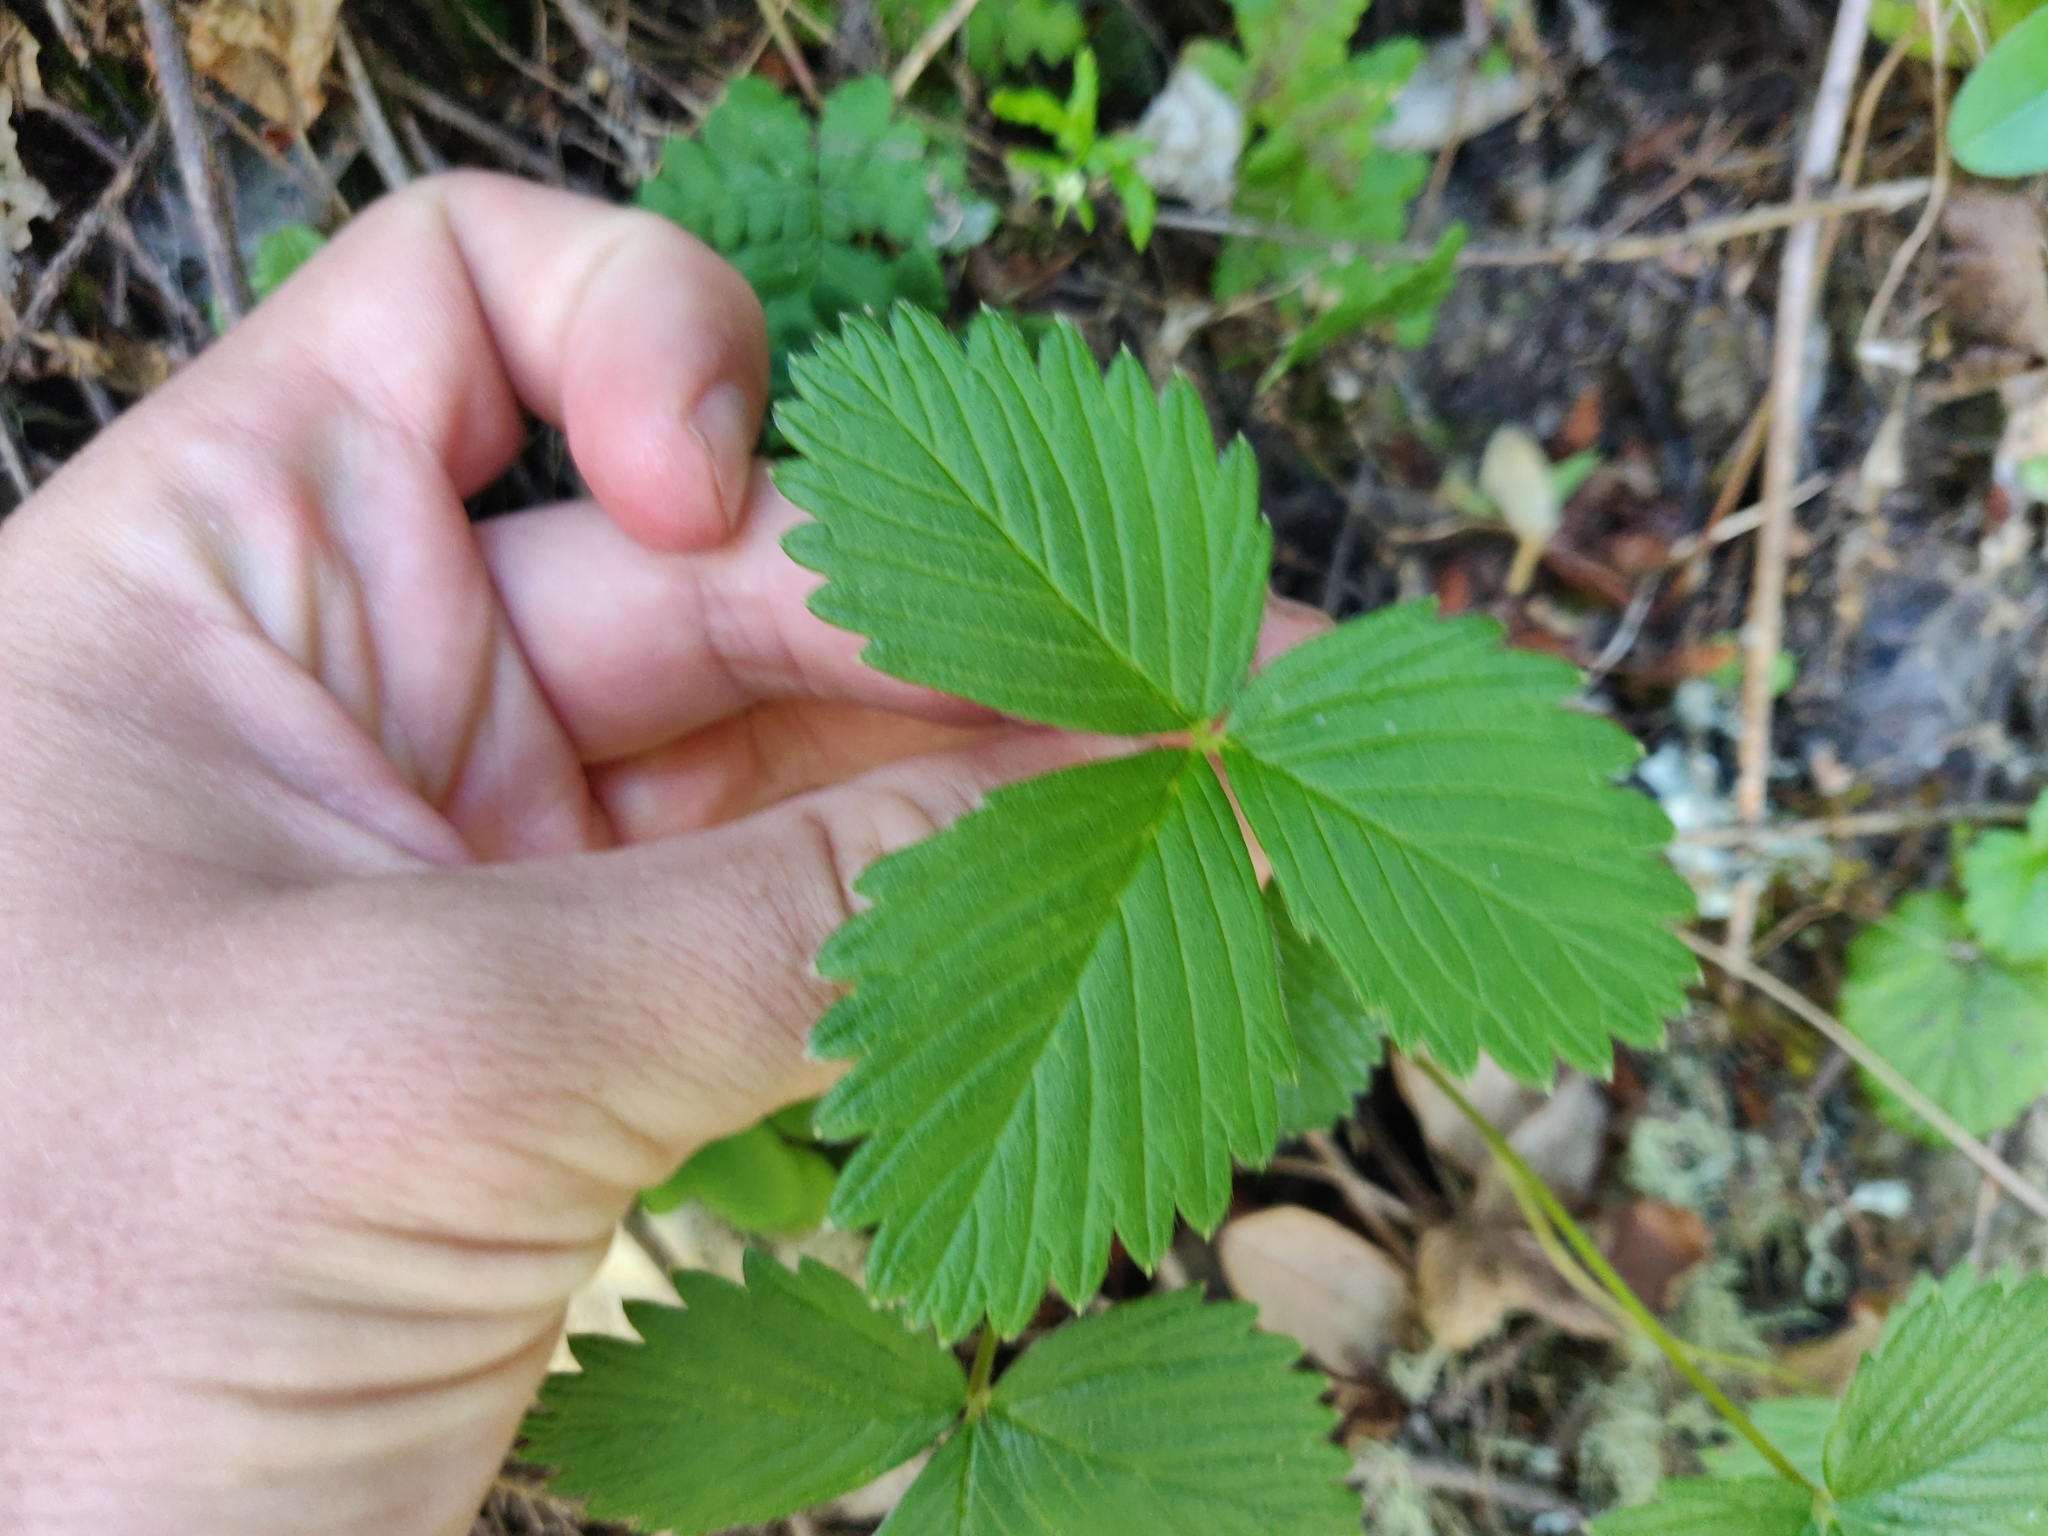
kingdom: Plantae
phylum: Tracheophyta
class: Magnoliopsida
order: Rosales
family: Rosaceae
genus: Fragaria
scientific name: Fragaria vesca
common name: Wild strawberry
